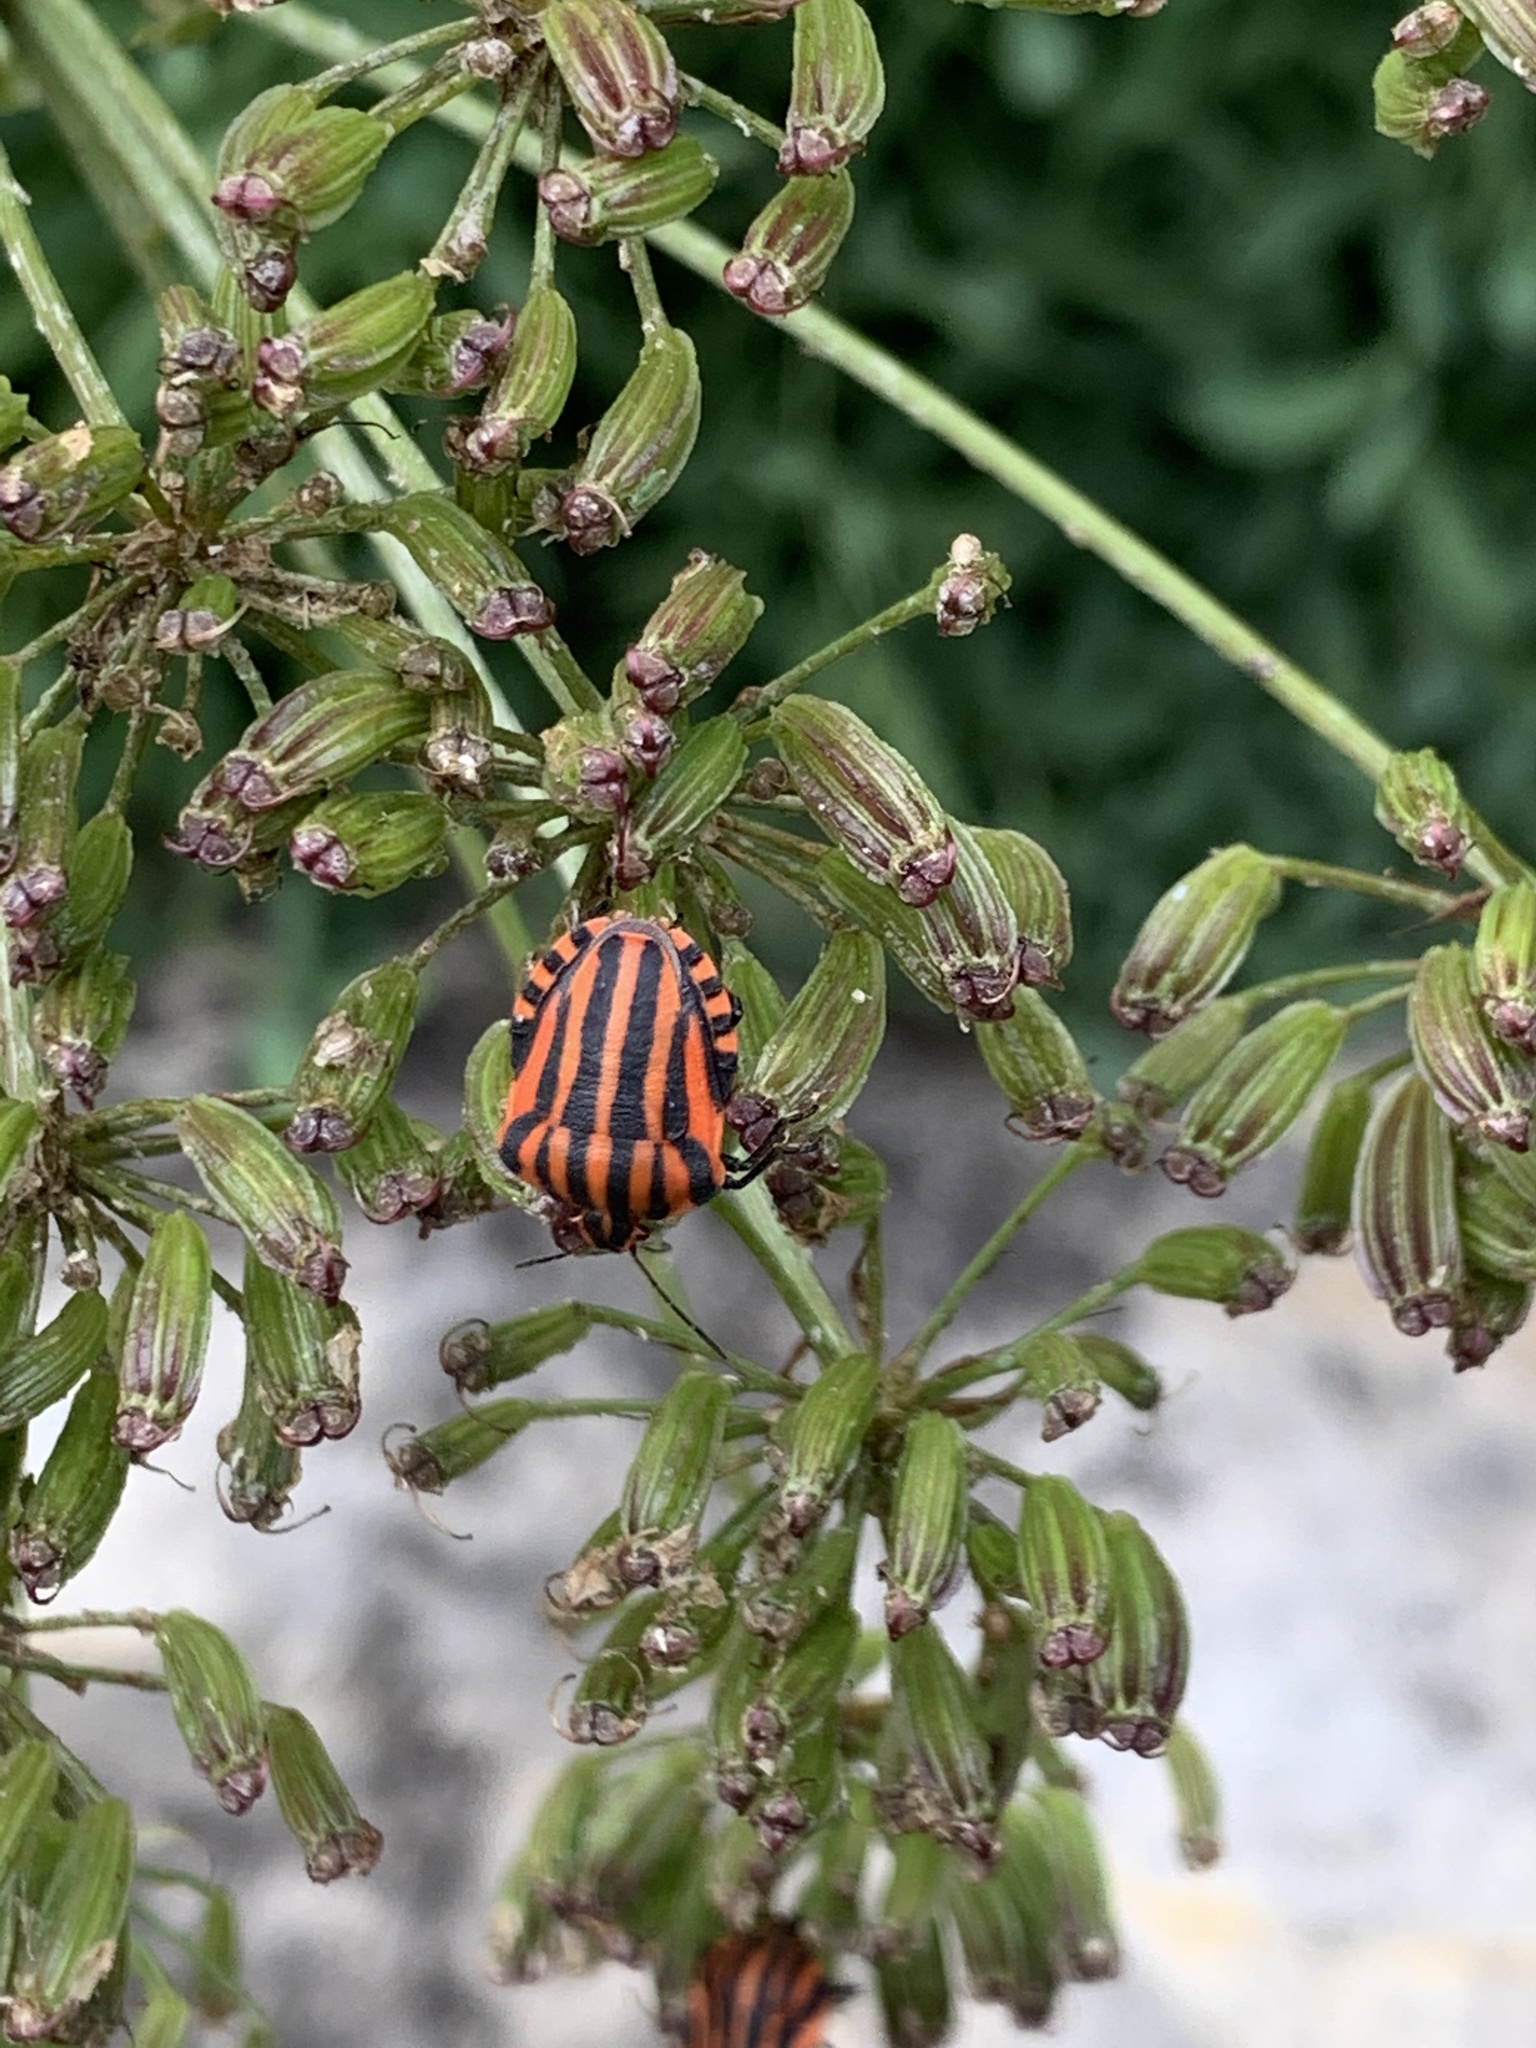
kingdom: Animalia
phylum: Arthropoda
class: Insecta
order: Hemiptera
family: Pentatomidae
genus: Graphosoma
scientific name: Graphosoma italicum
